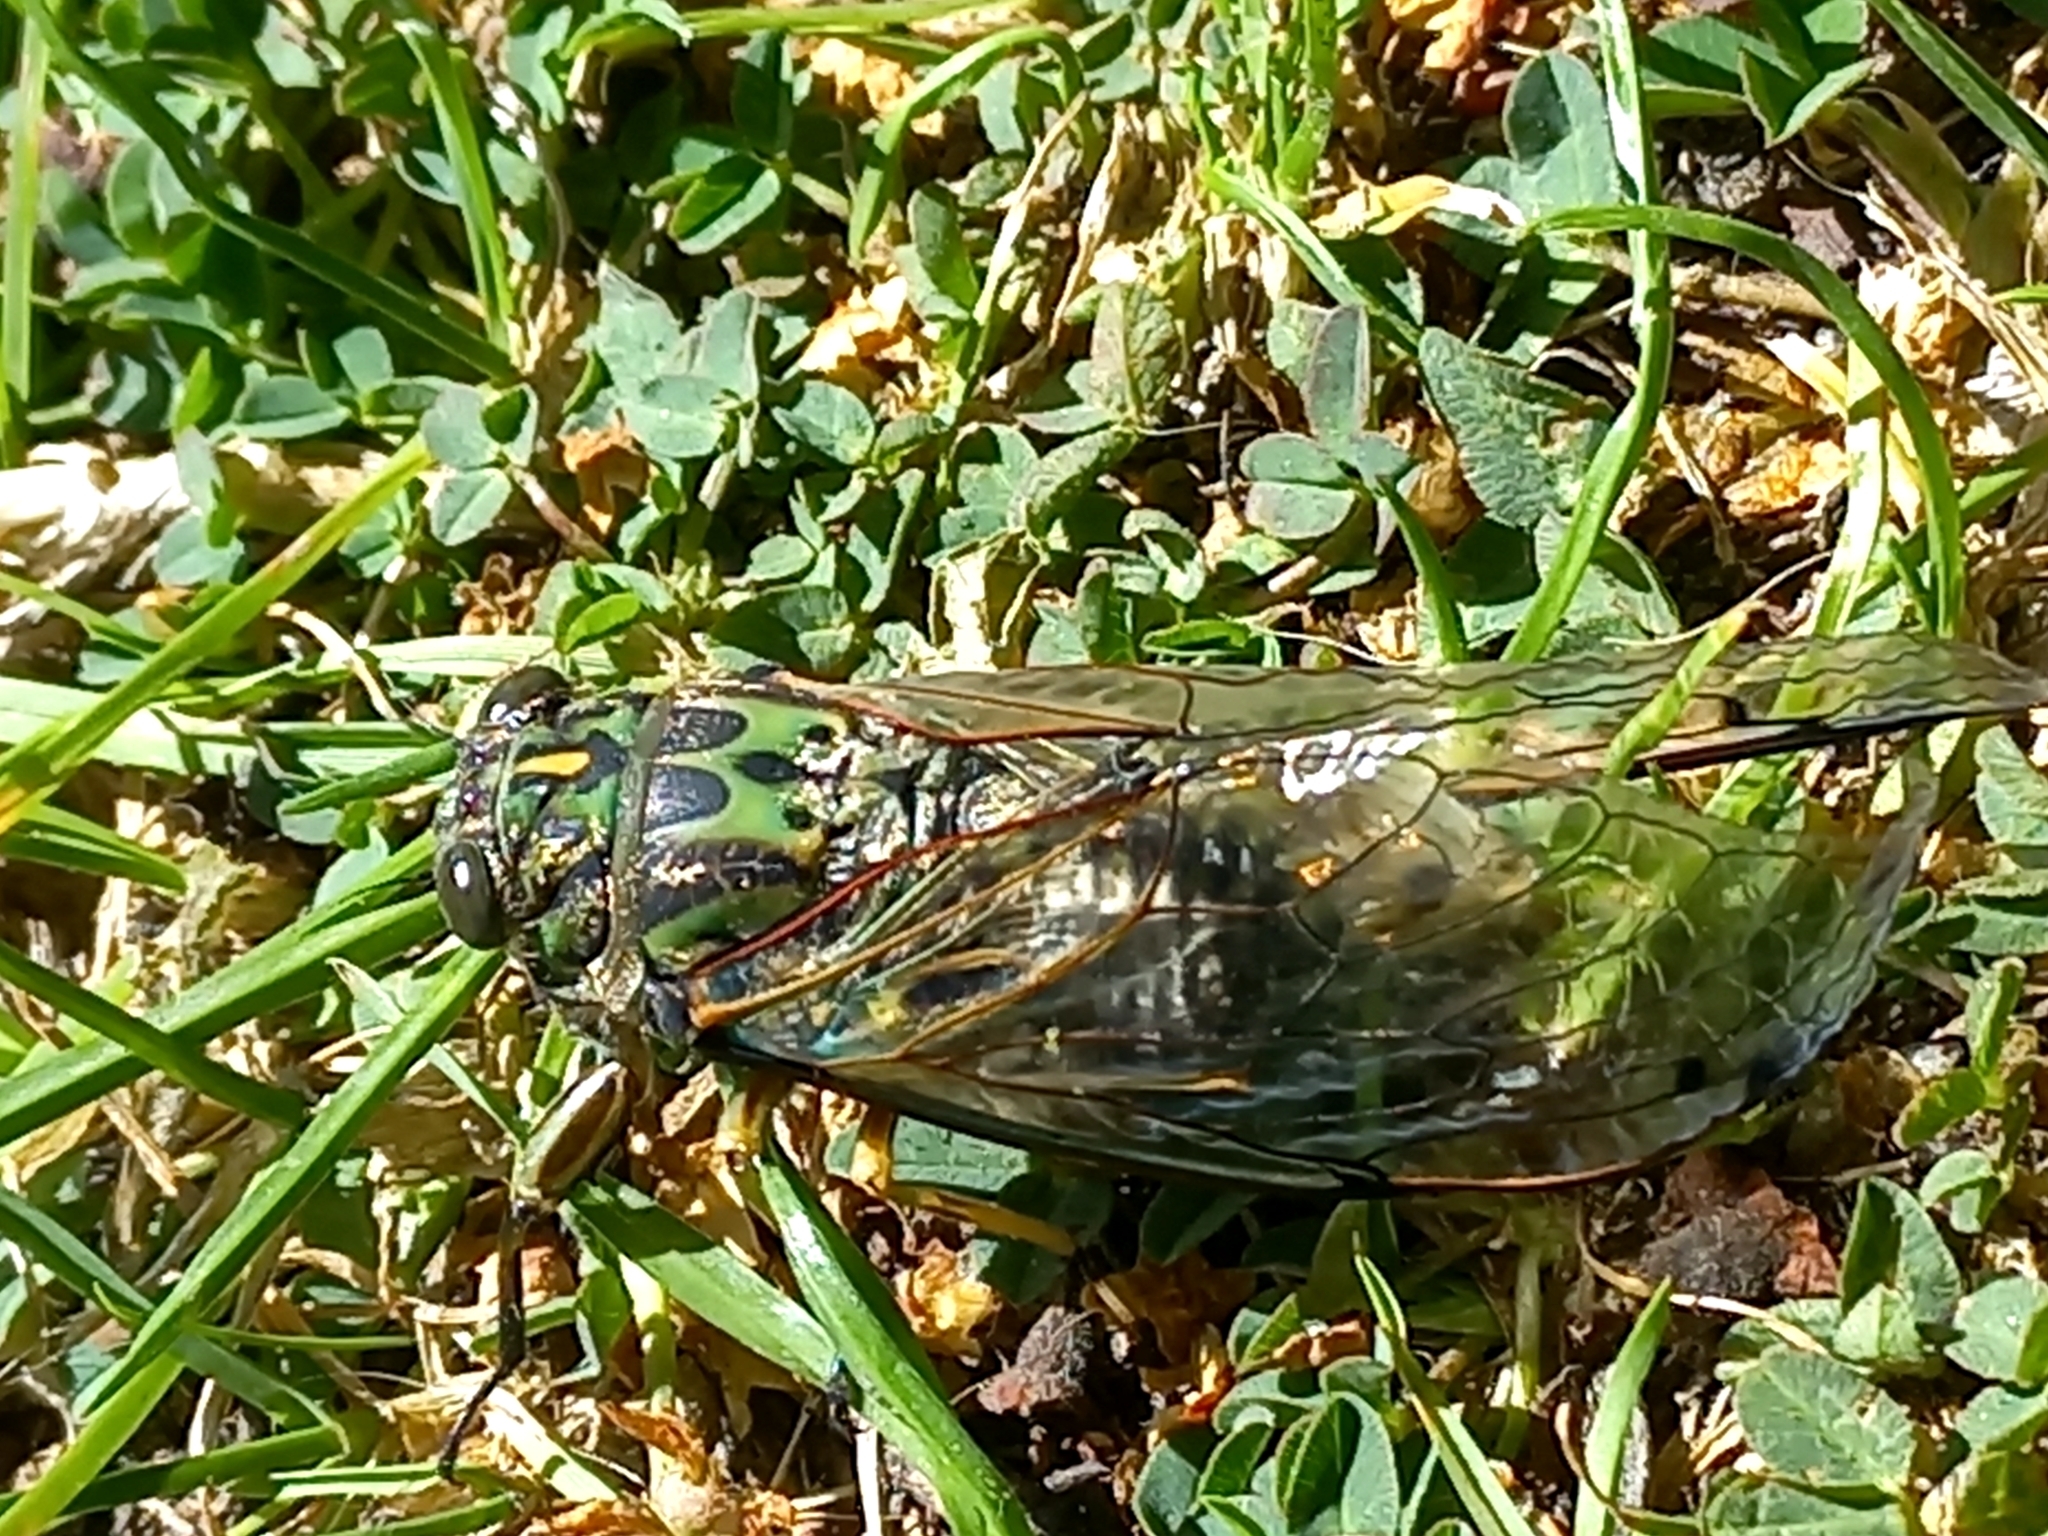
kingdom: Animalia
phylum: Arthropoda
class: Insecta
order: Hemiptera
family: Cicadidae
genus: Amphipsalta
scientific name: Amphipsalta zelandica
